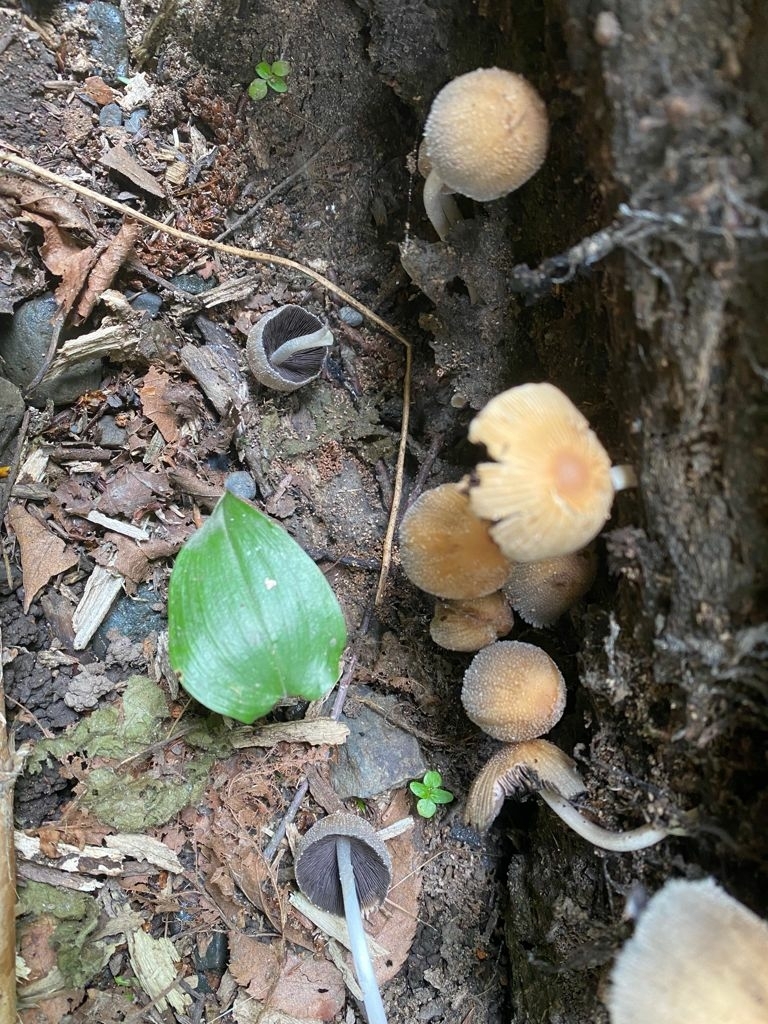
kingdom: Fungi
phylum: Basidiomycota
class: Agaricomycetes
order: Agaricales
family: Psathyrellaceae
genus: Coprinellus
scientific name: Coprinellus micaceus
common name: Glistening ink-cap
